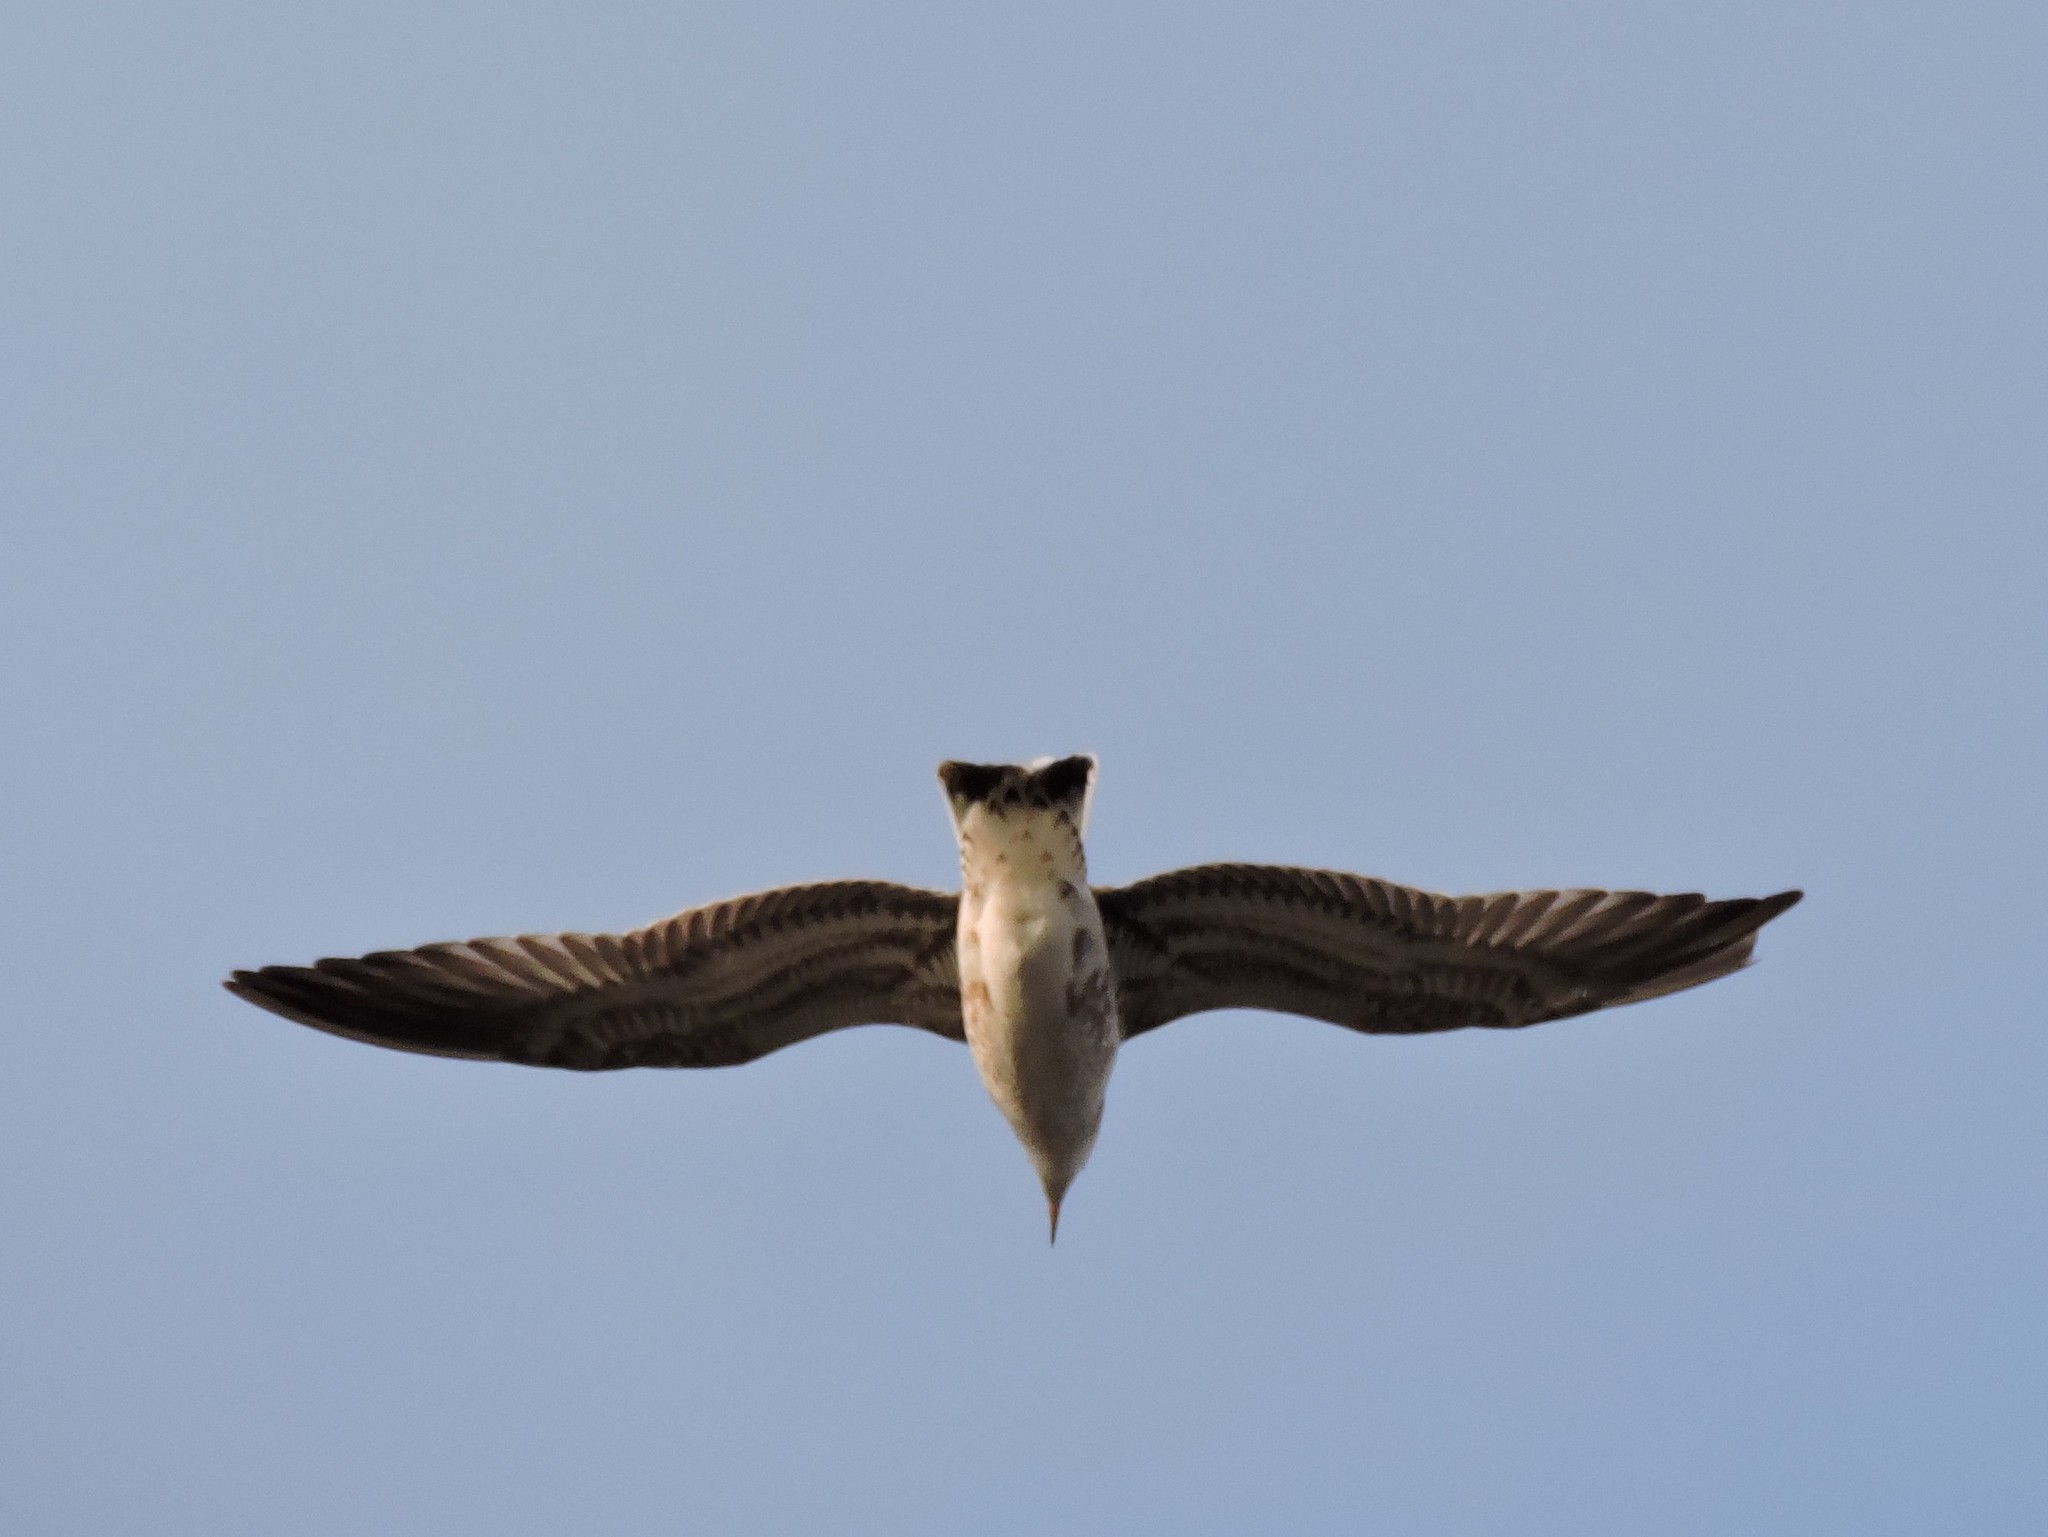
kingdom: Animalia
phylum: Chordata
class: Aves
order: Charadriiformes
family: Laridae
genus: Larus
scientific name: Larus canus
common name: Mew gull
